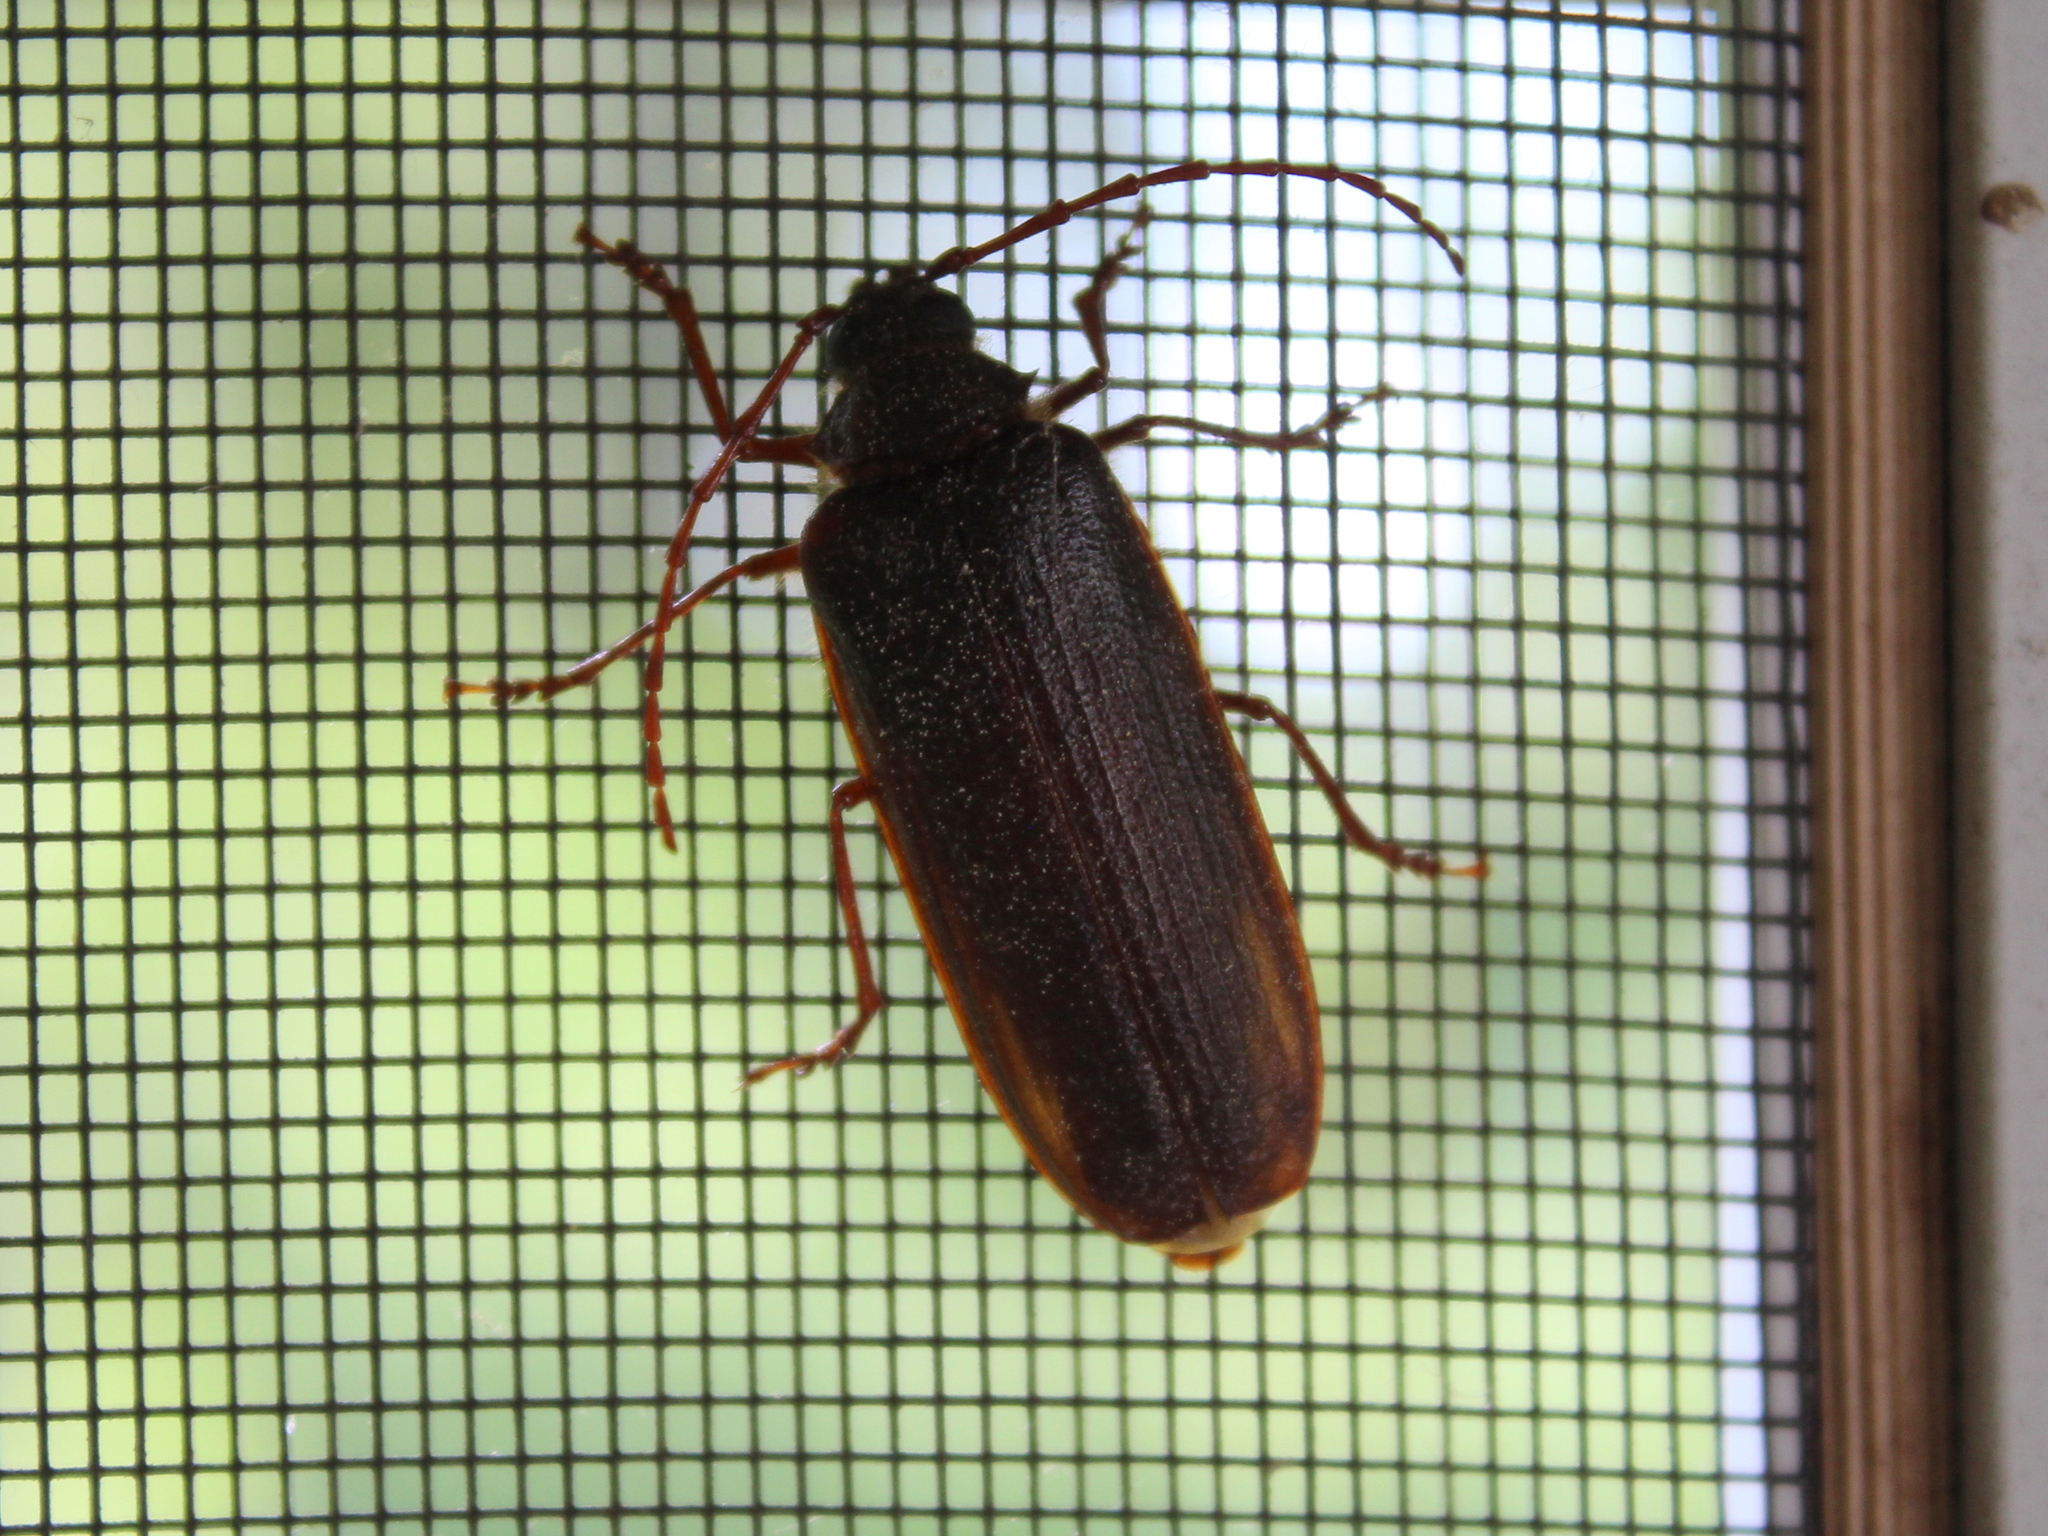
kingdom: Animalia
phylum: Arthropoda
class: Insecta
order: Coleoptera
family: Cerambycidae
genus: Tragosoma
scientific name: Tragosoma harrisii
